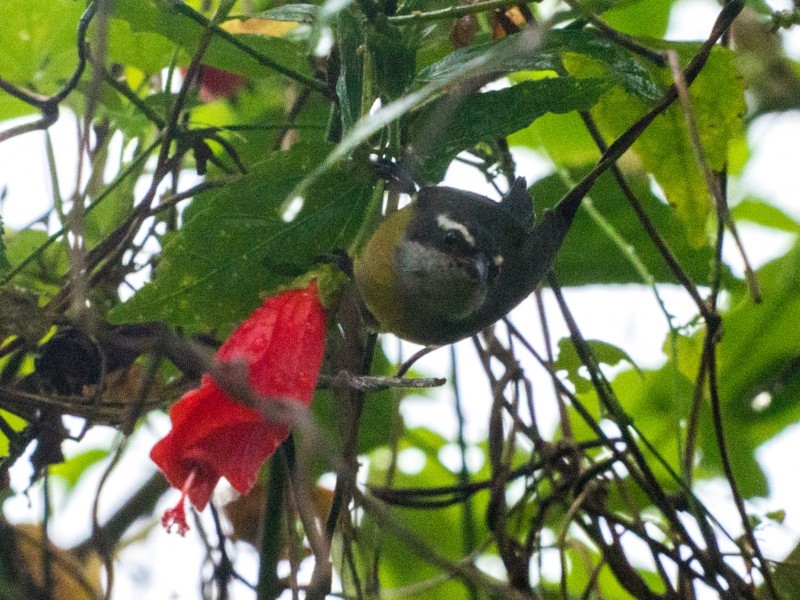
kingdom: Animalia
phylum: Chordata
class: Aves
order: Passeriformes
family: Thraupidae
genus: Coereba
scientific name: Coereba flaveola
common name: Bananaquit
